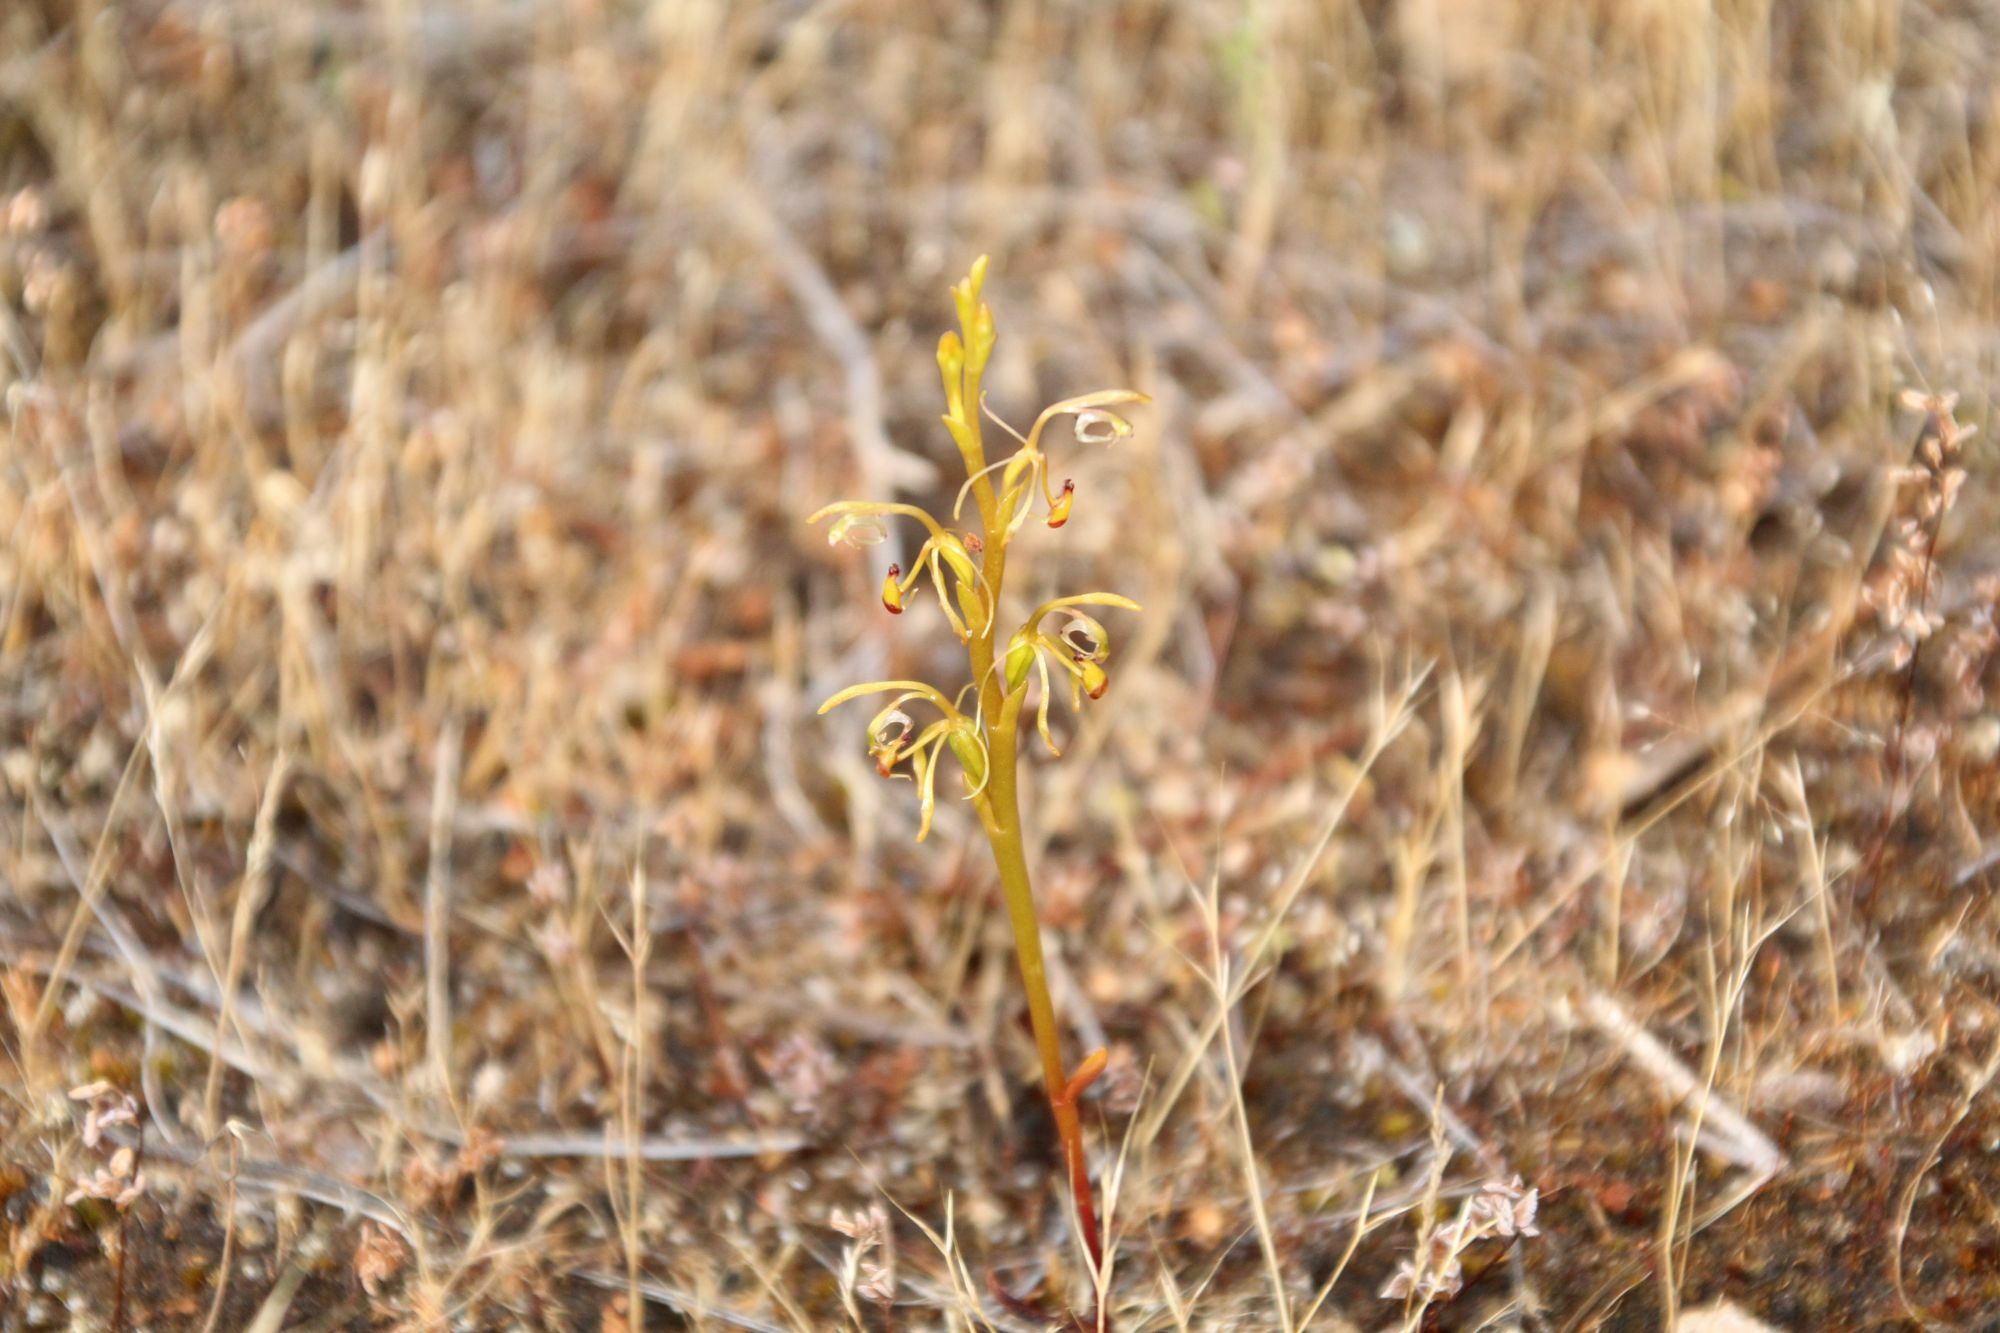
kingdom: Plantae
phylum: Tracheophyta
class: Liliopsida
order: Asparagales
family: Orchidaceae
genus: Spiculaea
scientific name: Spiculaea ciliata
